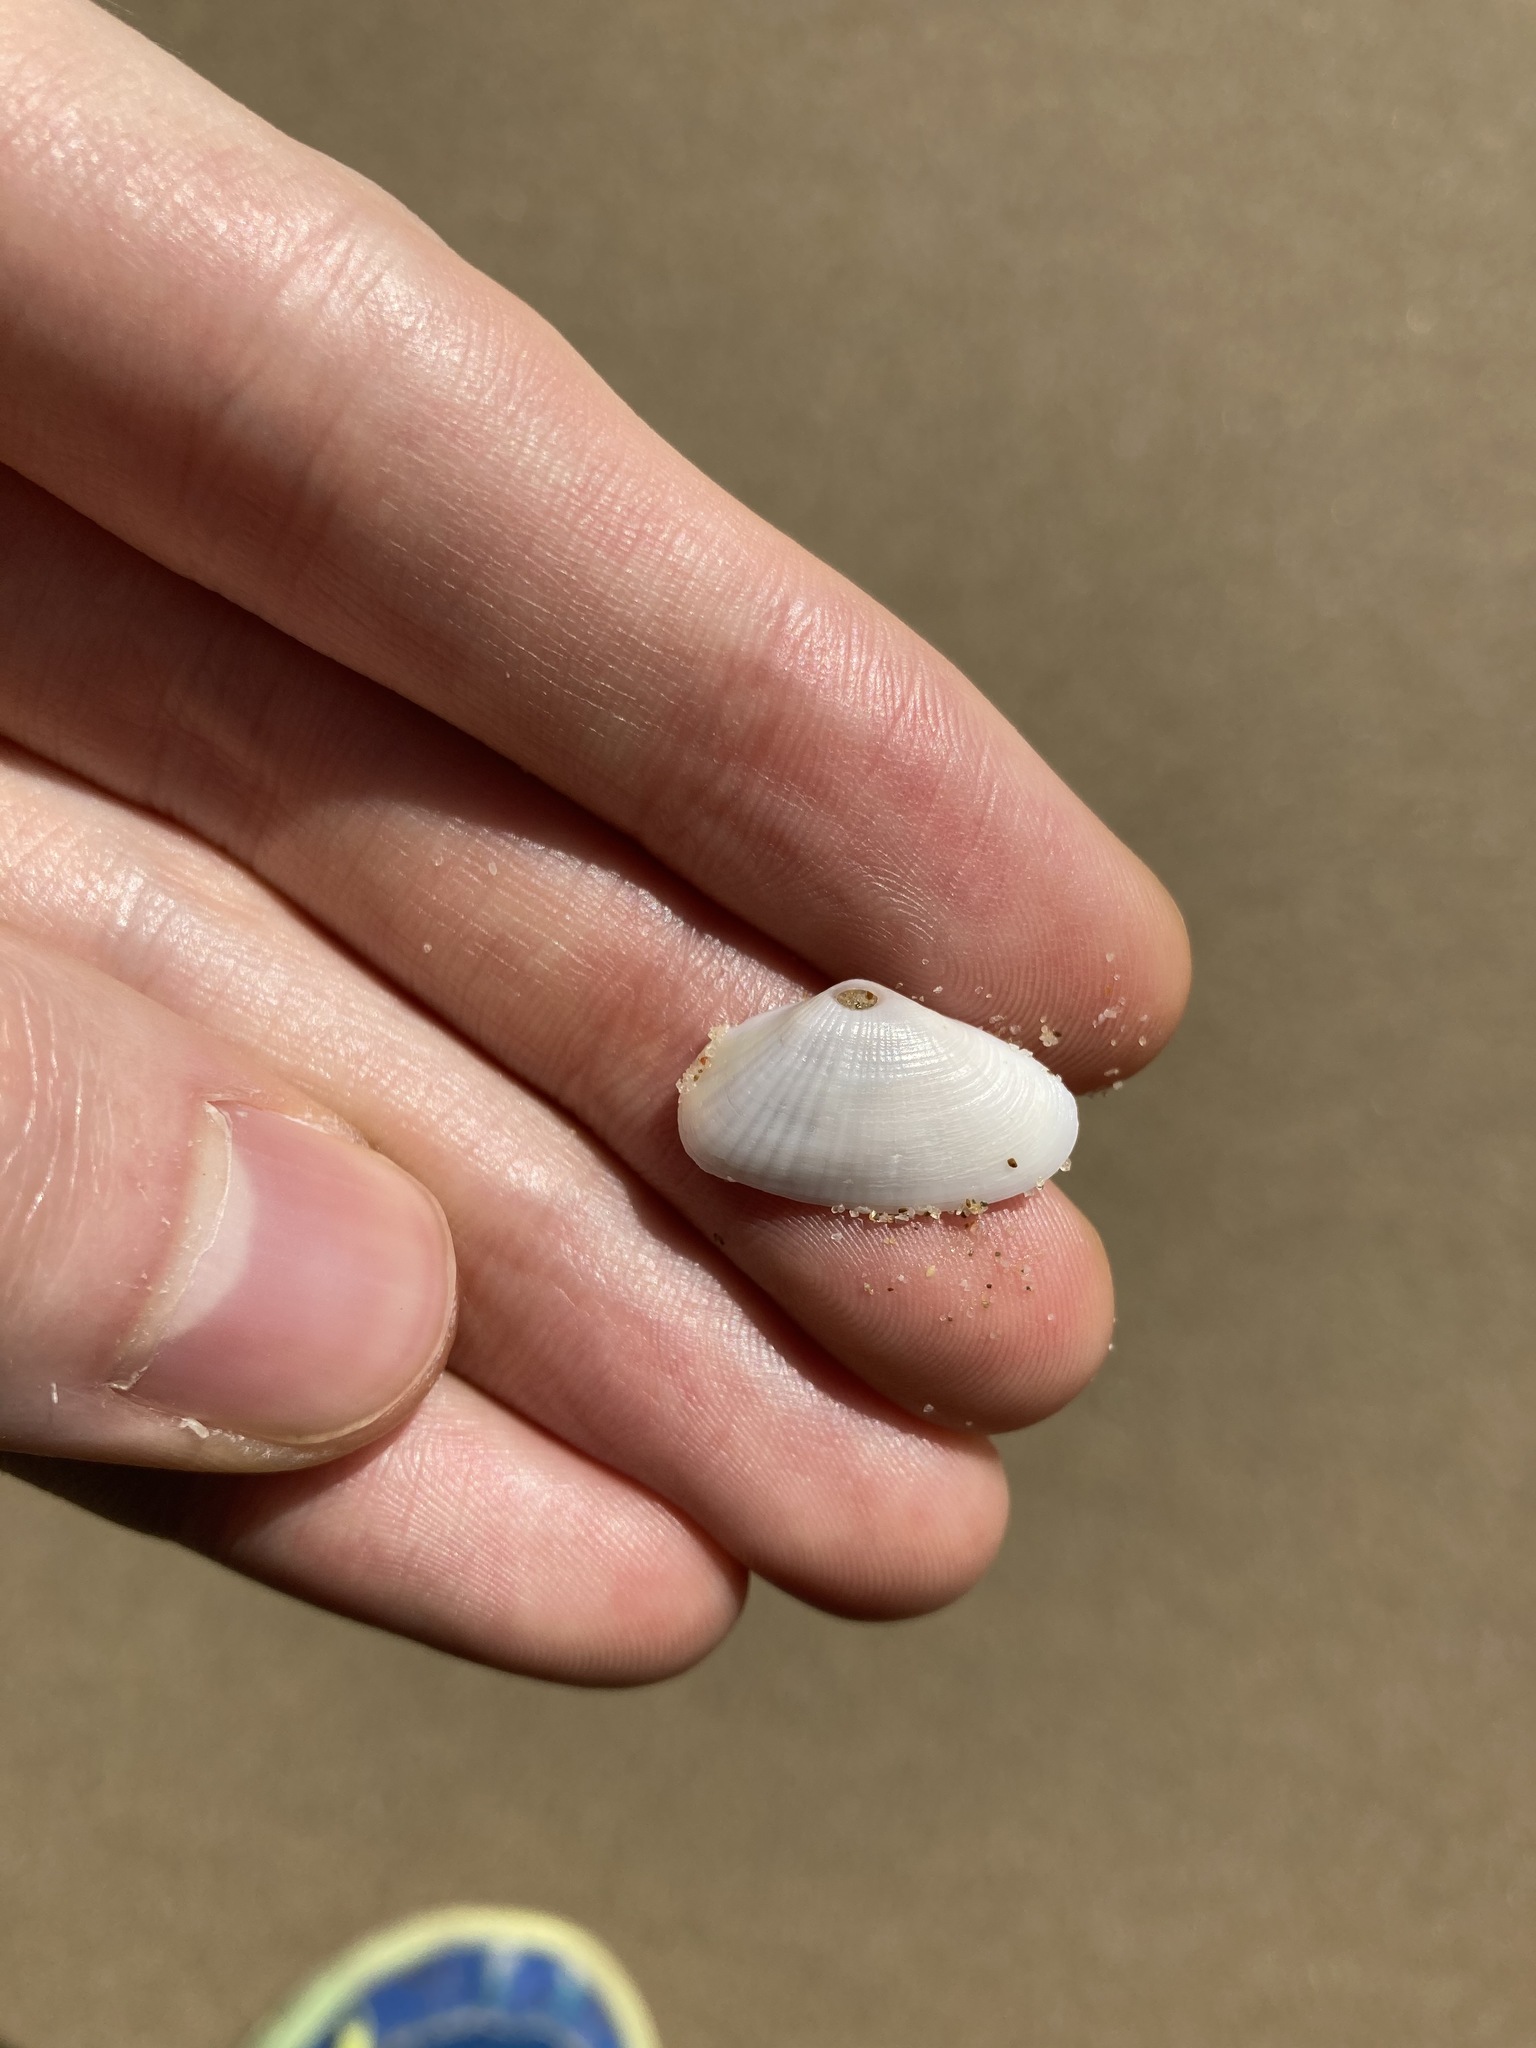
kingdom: Animalia
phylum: Mollusca
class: Bivalvia
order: Venerida
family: Hemidonacidae
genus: Hemidonax
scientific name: Hemidonax dactylus
